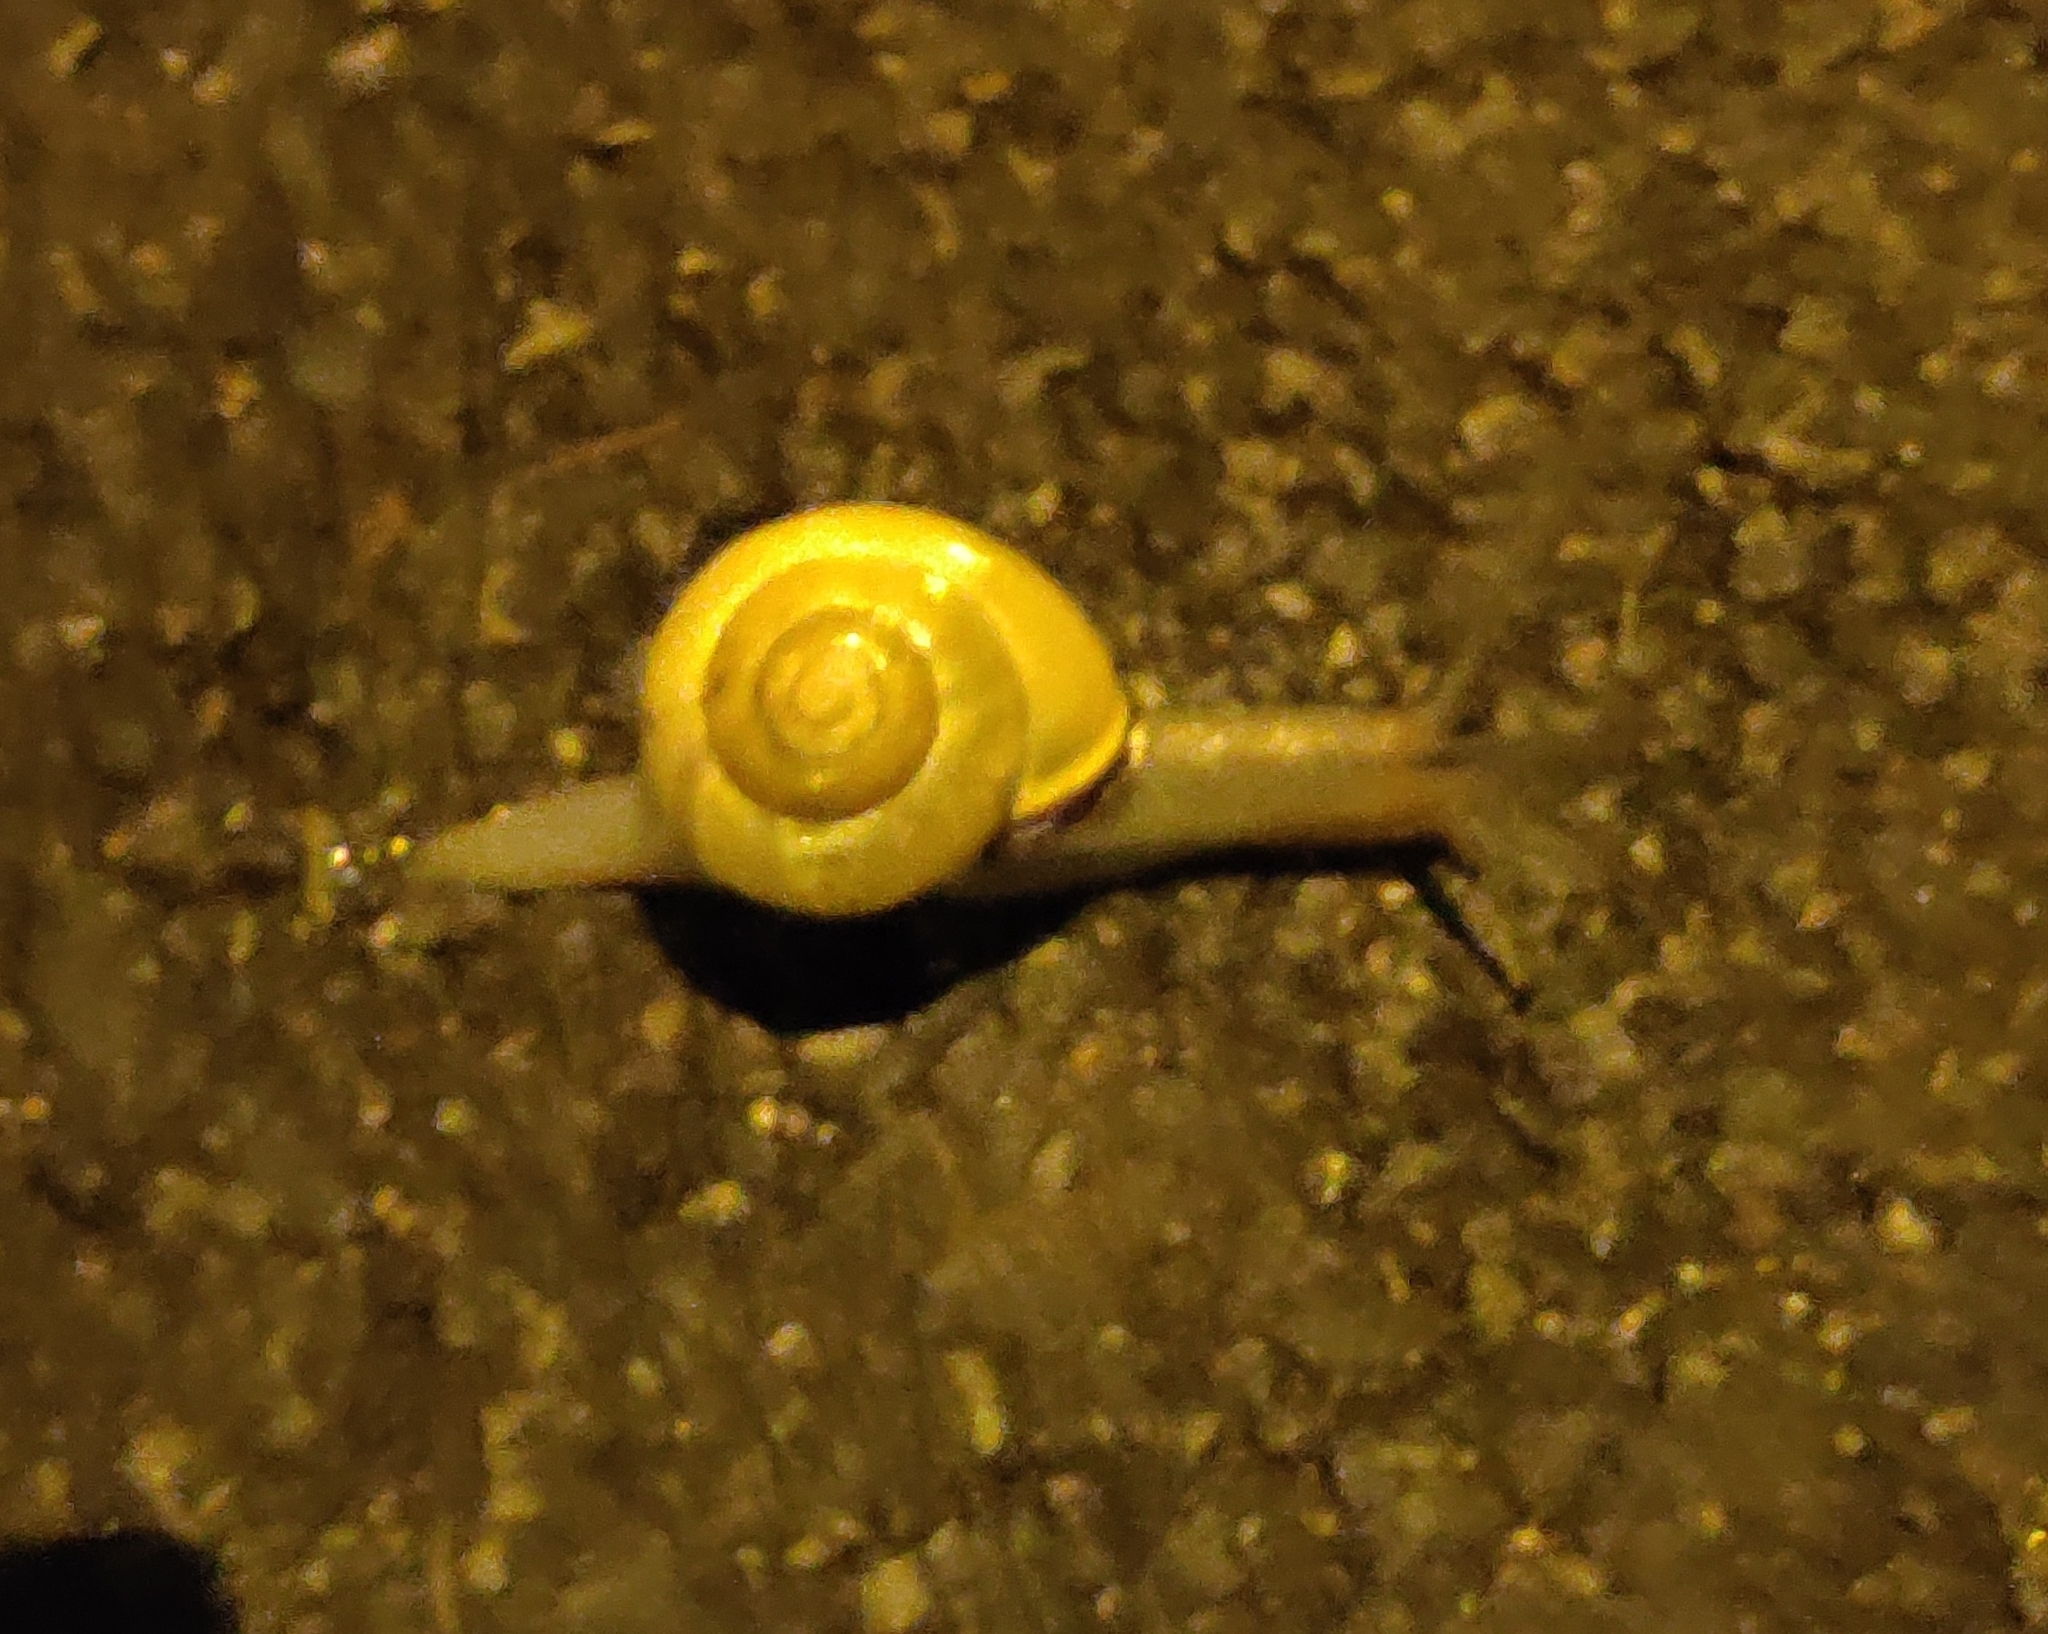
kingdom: Animalia
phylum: Mollusca
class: Gastropoda
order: Stylommatophora
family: Helicidae
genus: Cepaea
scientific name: Cepaea nemoralis
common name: Grovesnail
